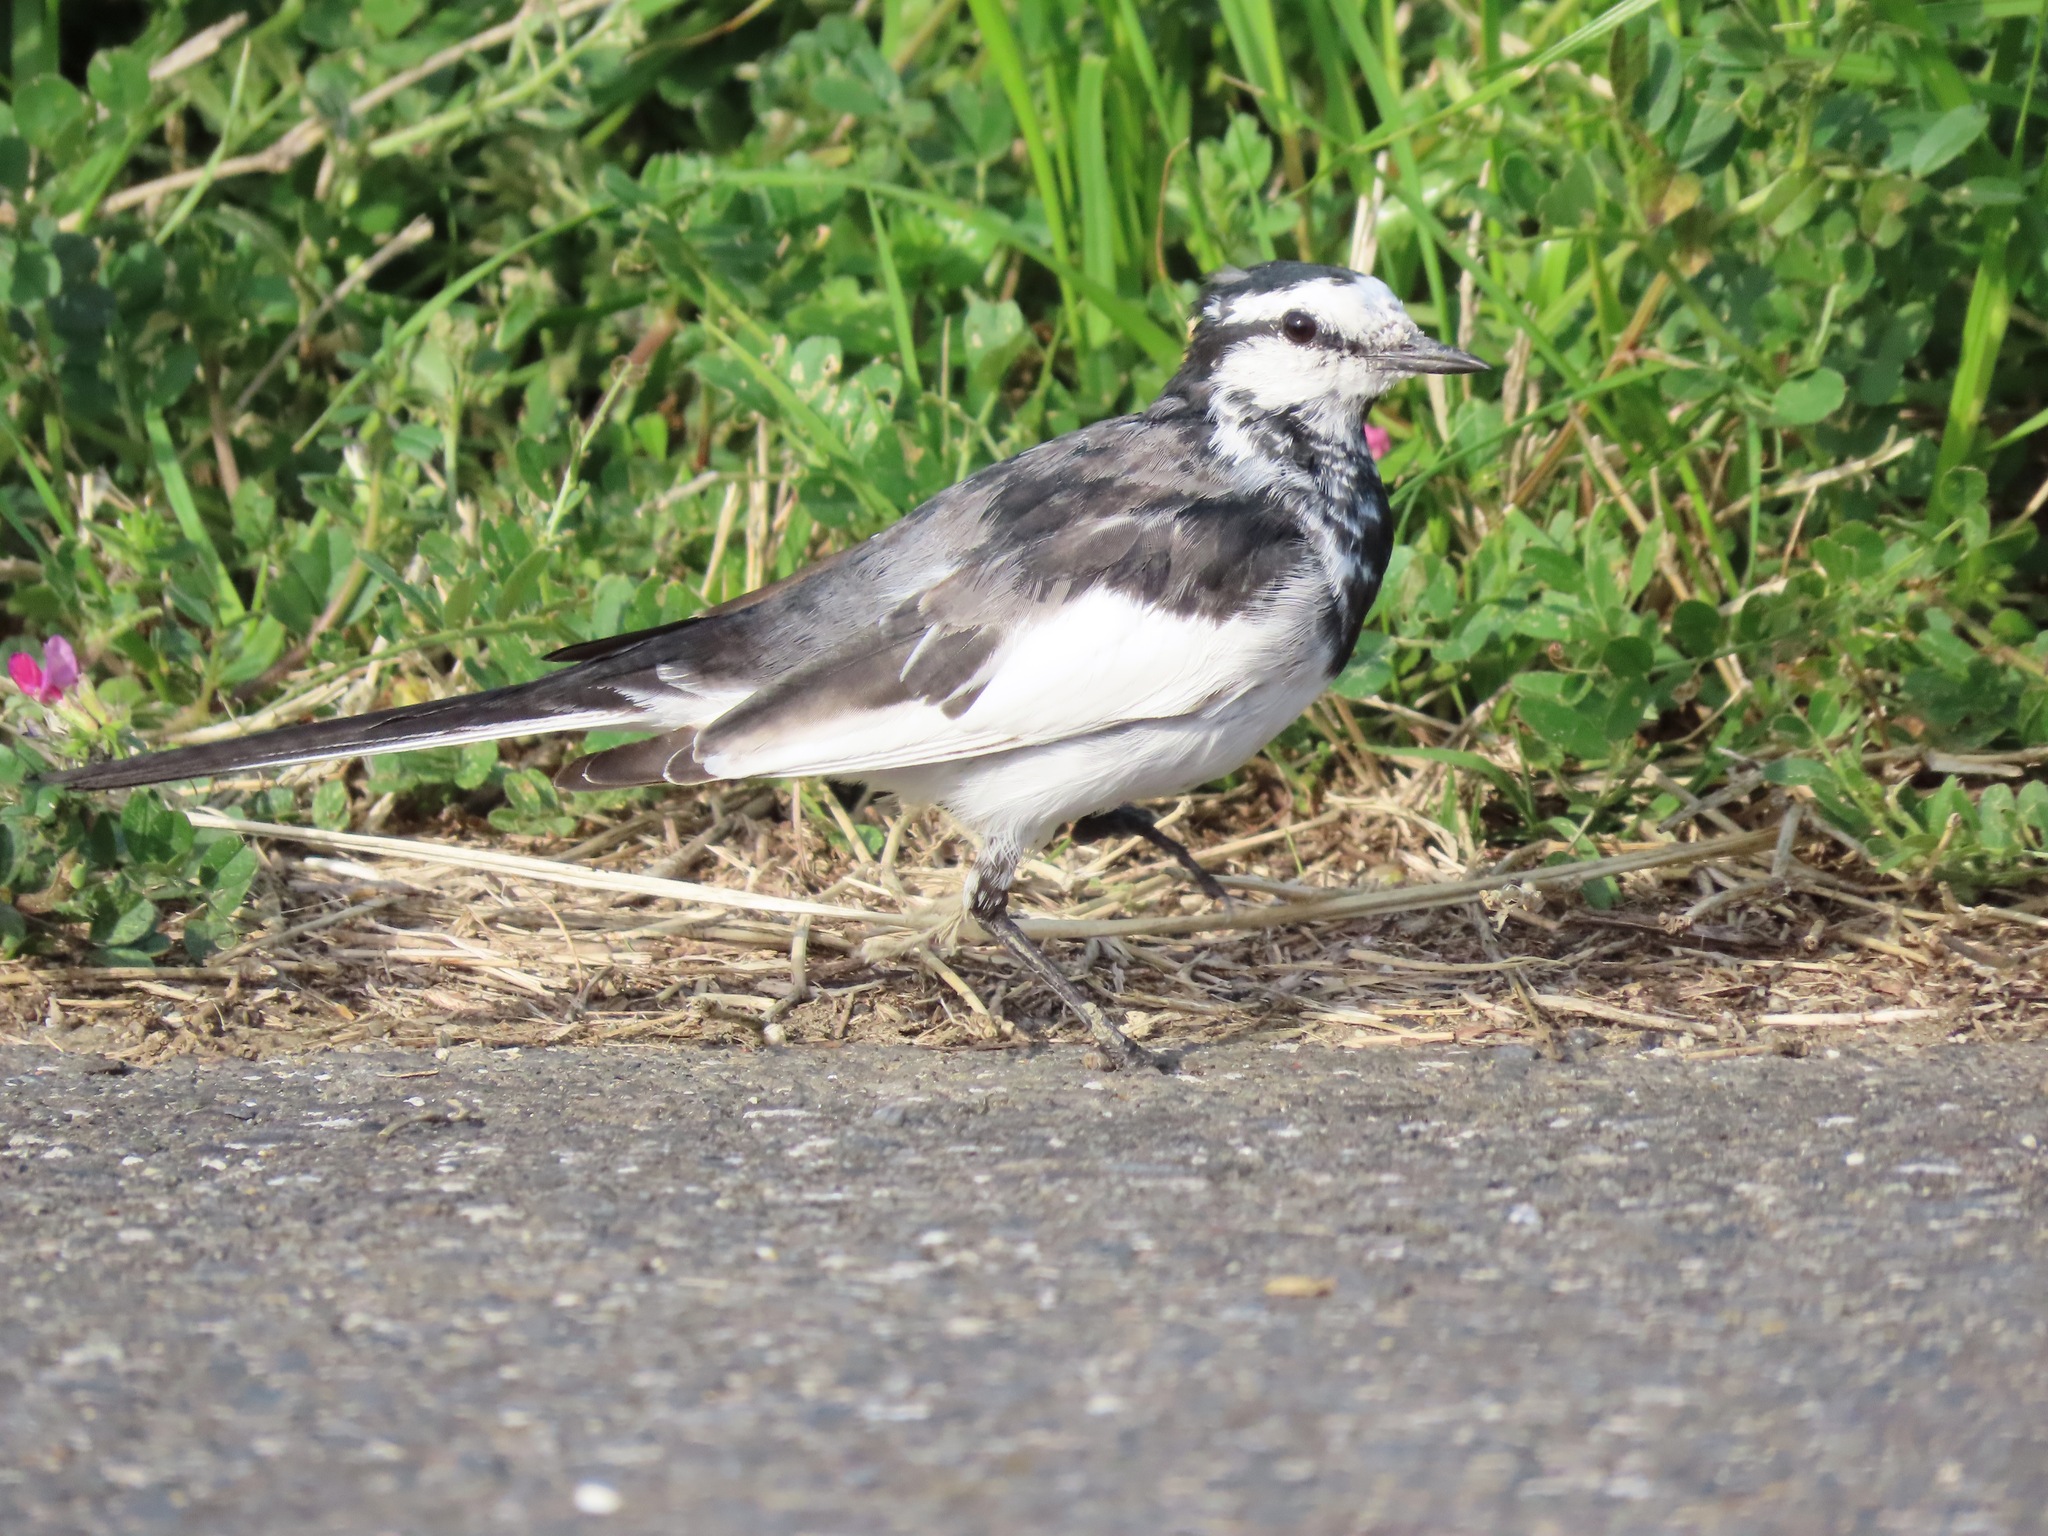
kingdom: Animalia
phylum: Chordata
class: Aves
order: Passeriformes
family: Motacillidae
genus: Motacilla
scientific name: Motacilla alba
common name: White wagtail
